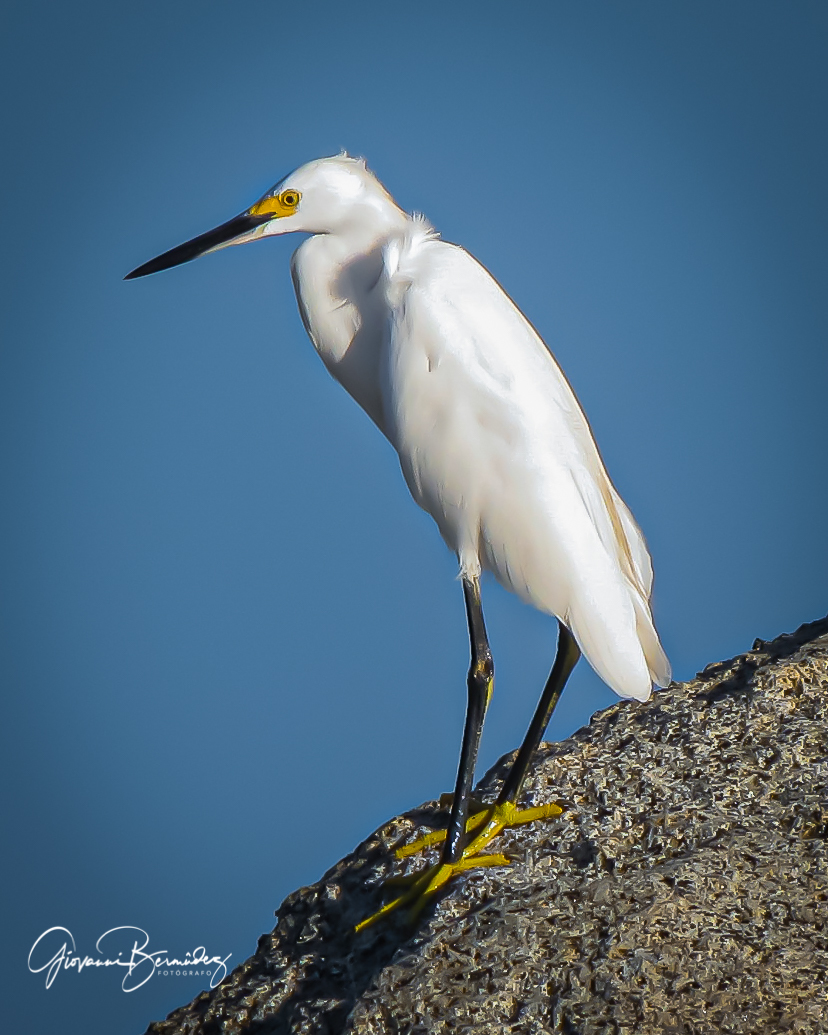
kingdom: Animalia
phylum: Chordata
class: Aves
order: Pelecaniformes
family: Ardeidae
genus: Egretta
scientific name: Egretta thula
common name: Snowy egret
